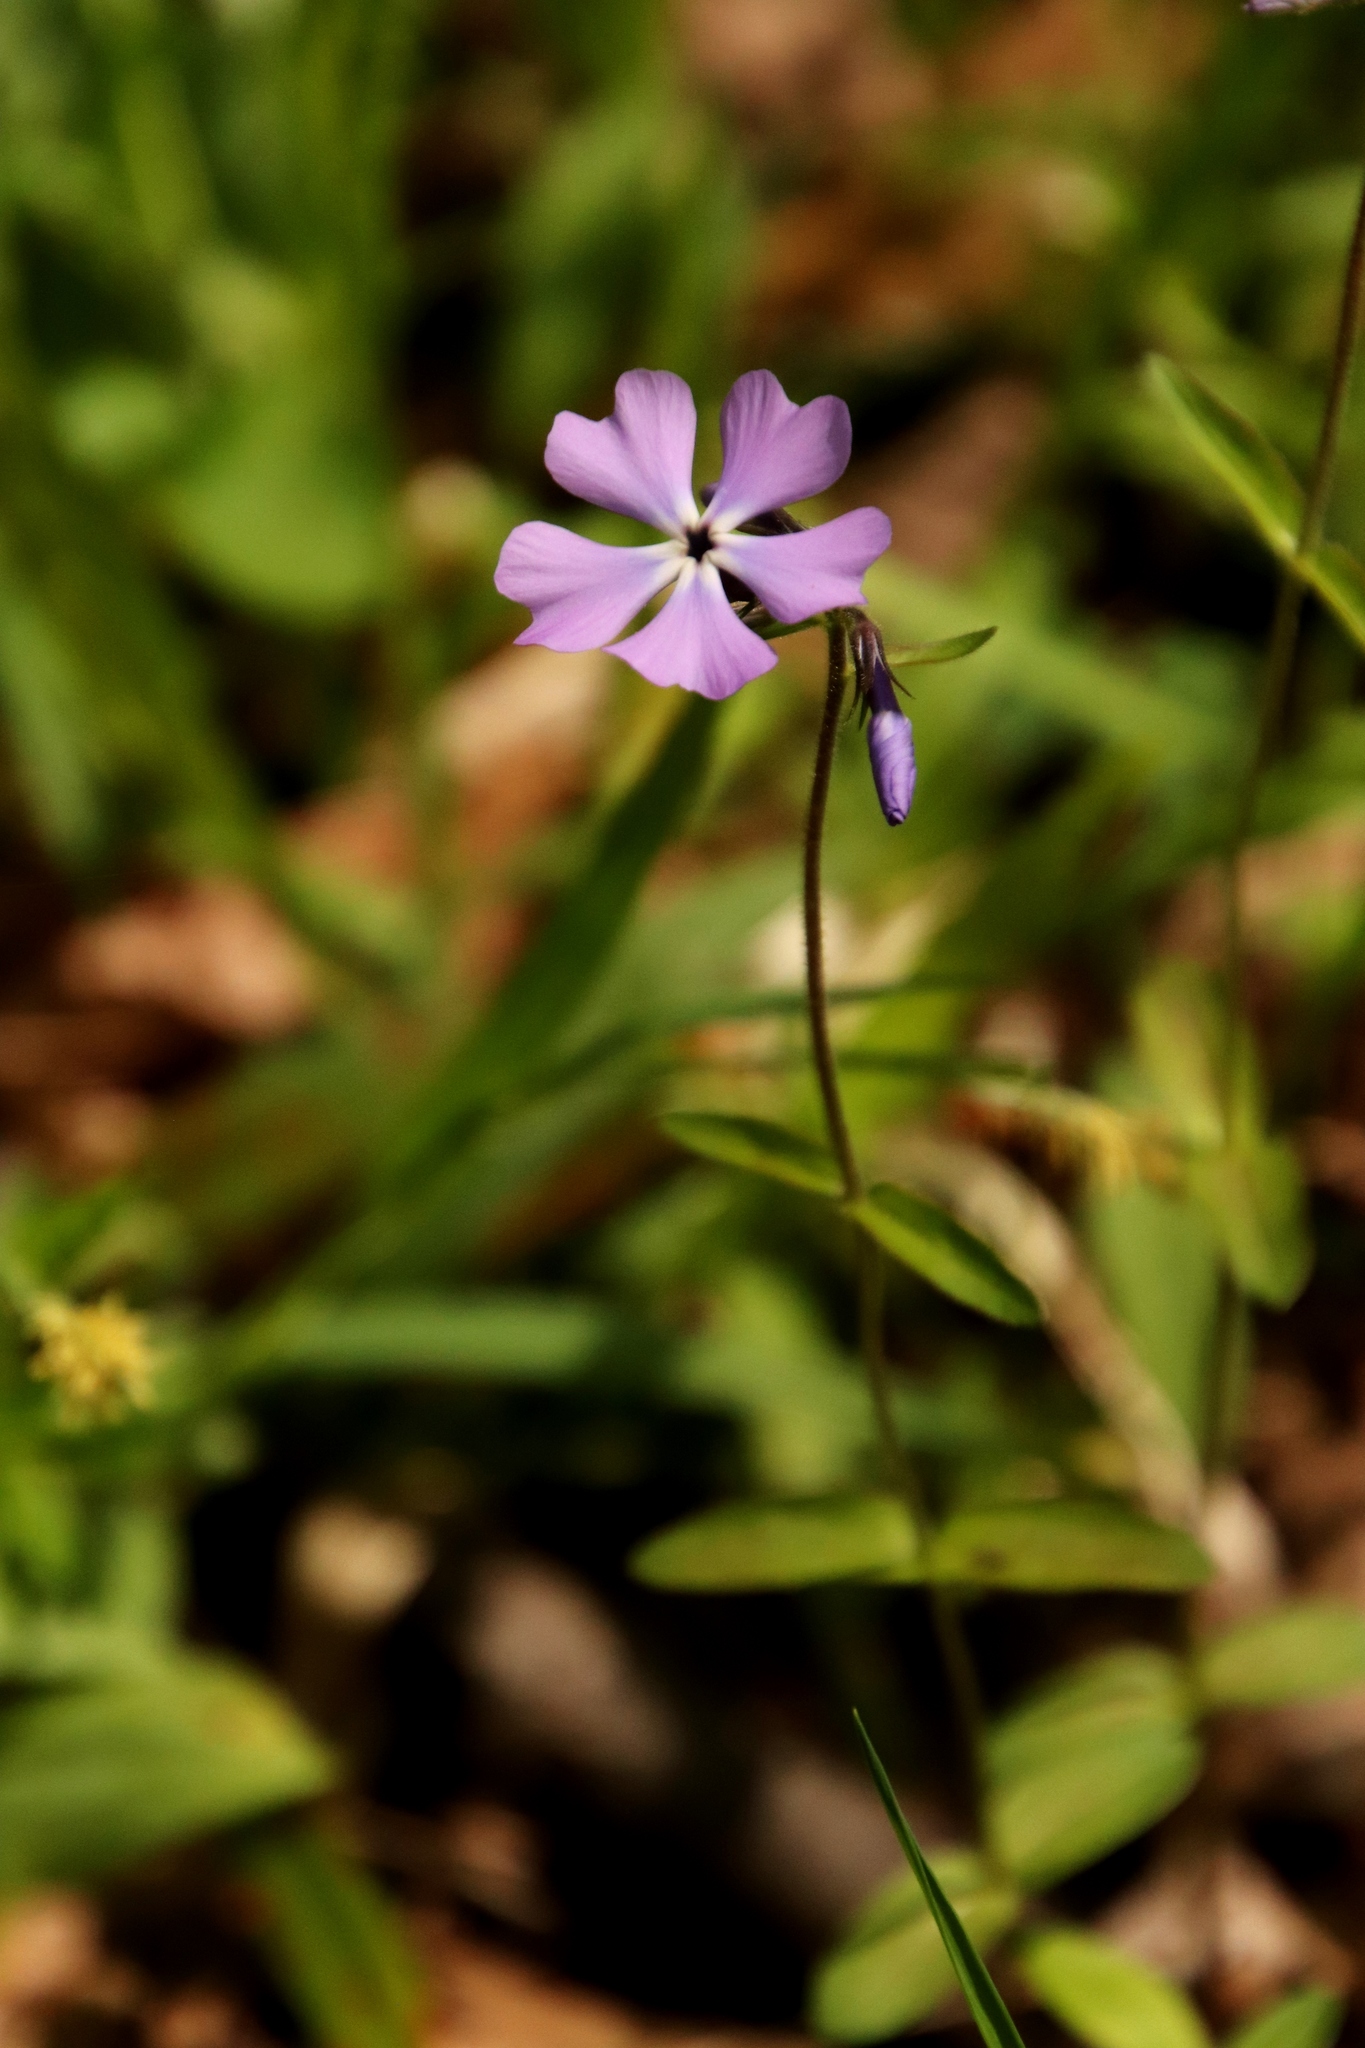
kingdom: Plantae
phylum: Tracheophyta
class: Magnoliopsida
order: Ericales
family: Polemoniaceae
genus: Phlox
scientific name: Phlox divaricata
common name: Blue phlox
